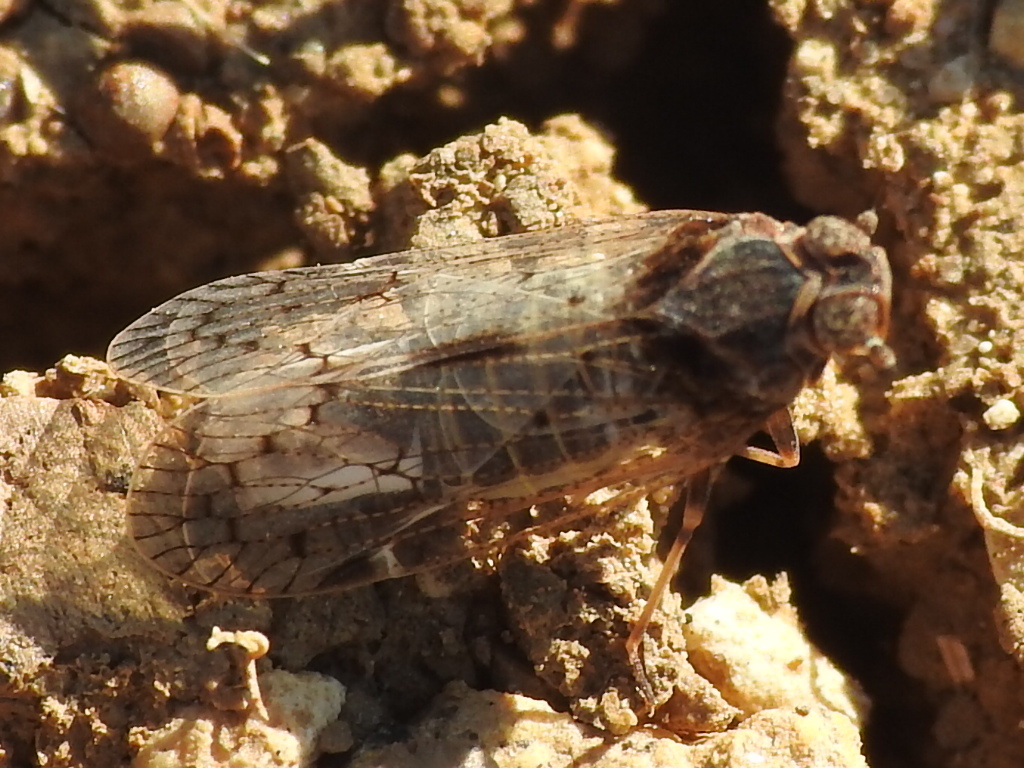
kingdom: Animalia
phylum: Arthropoda
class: Insecta
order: Hemiptera
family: Cixiidae
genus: Melanoliarus
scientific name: Melanoliarus aridus
